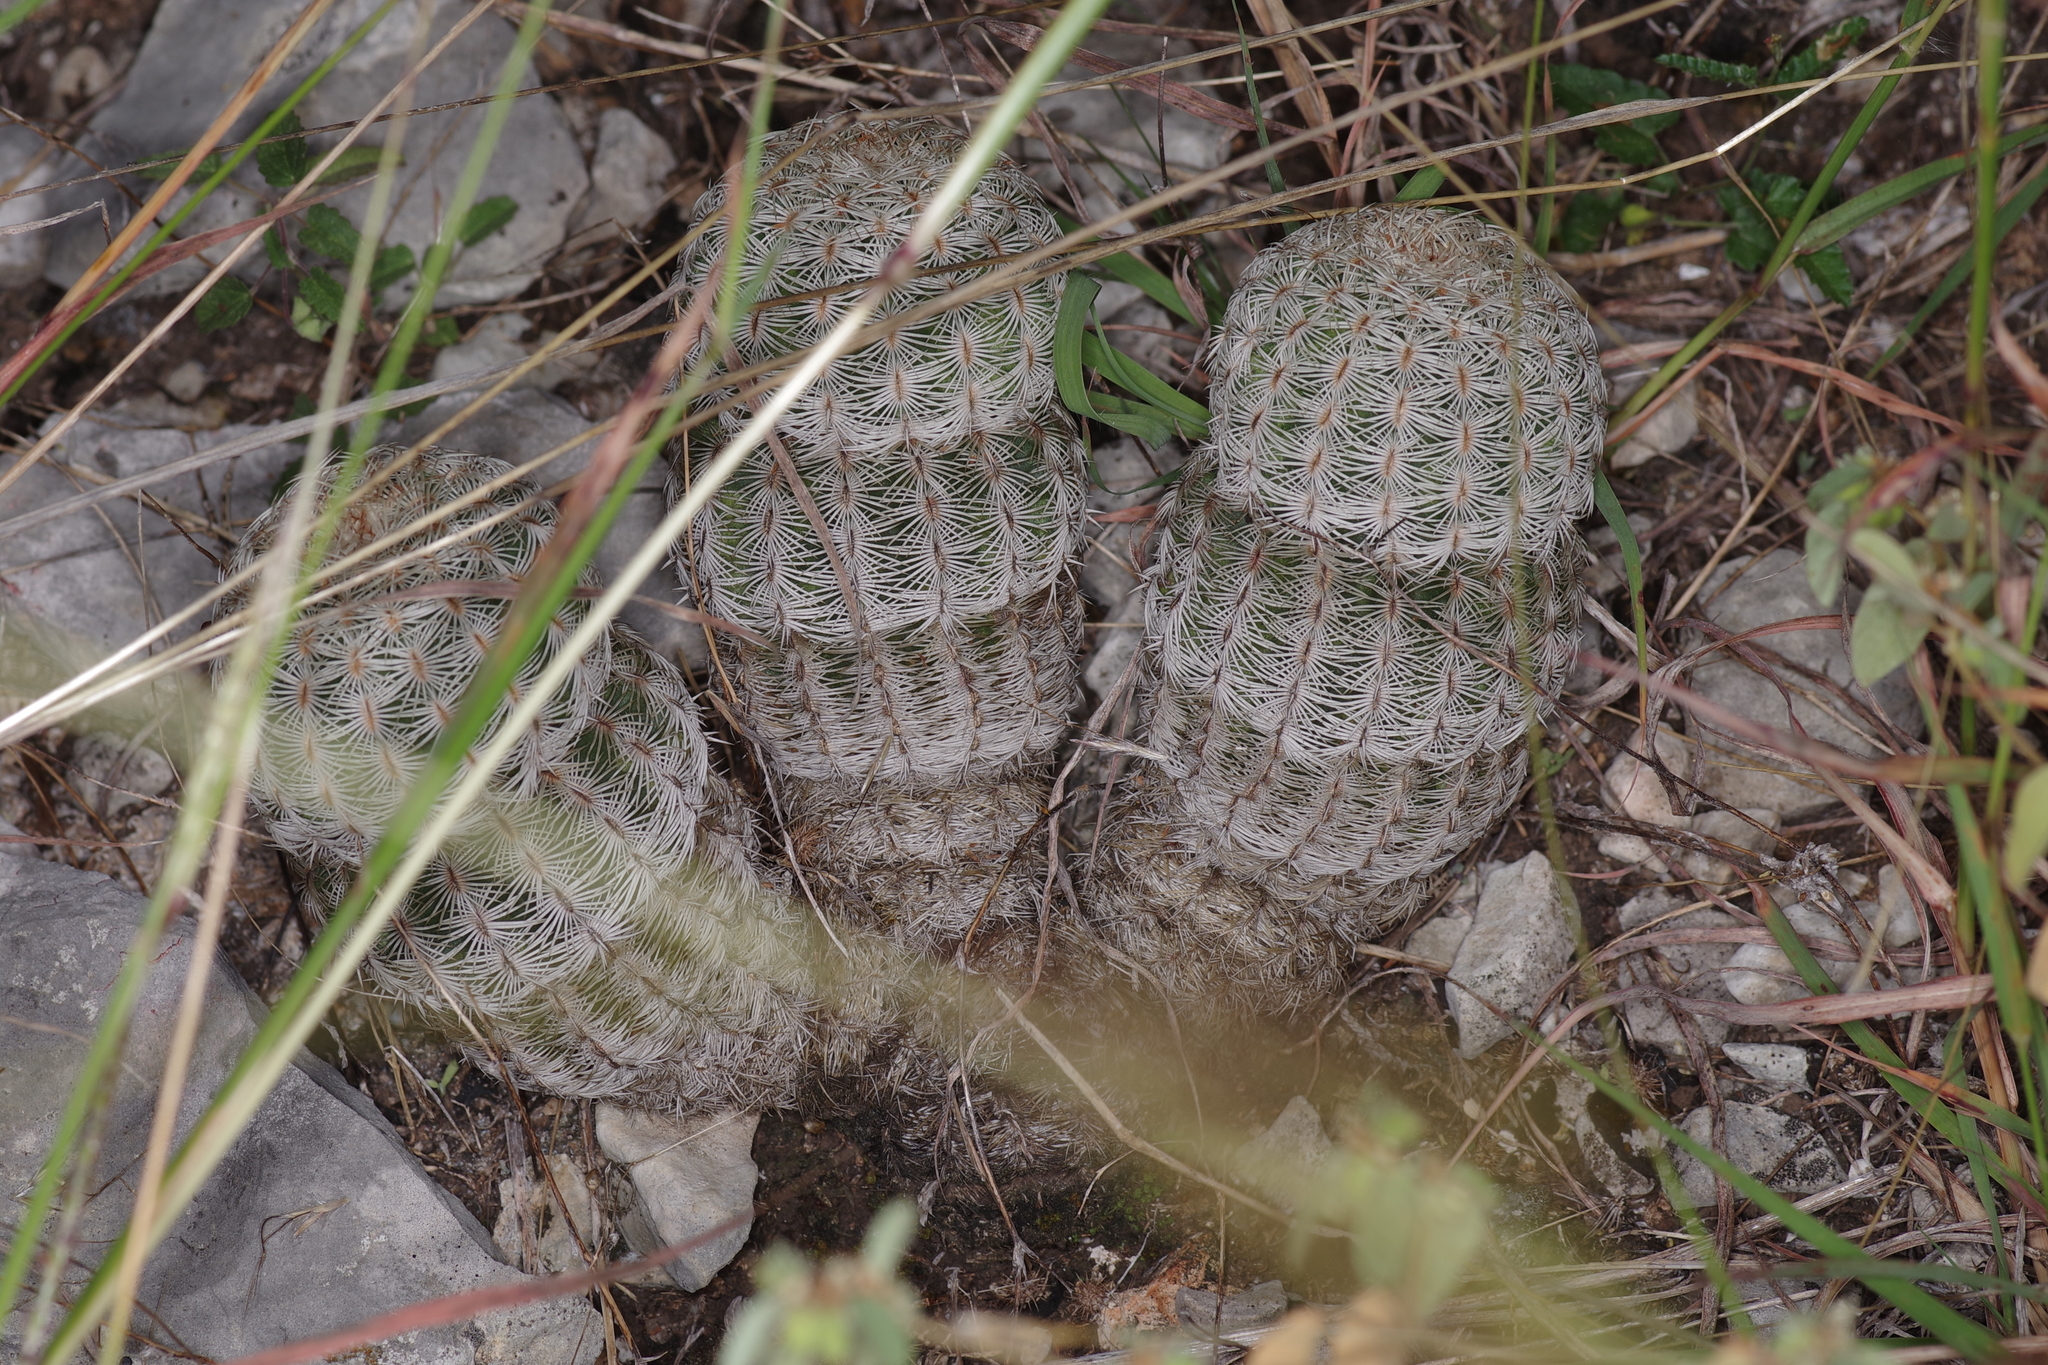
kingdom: Plantae
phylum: Tracheophyta
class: Magnoliopsida
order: Caryophyllales
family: Cactaceae
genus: Echinocereus
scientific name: Echinocereus reichenbachii
